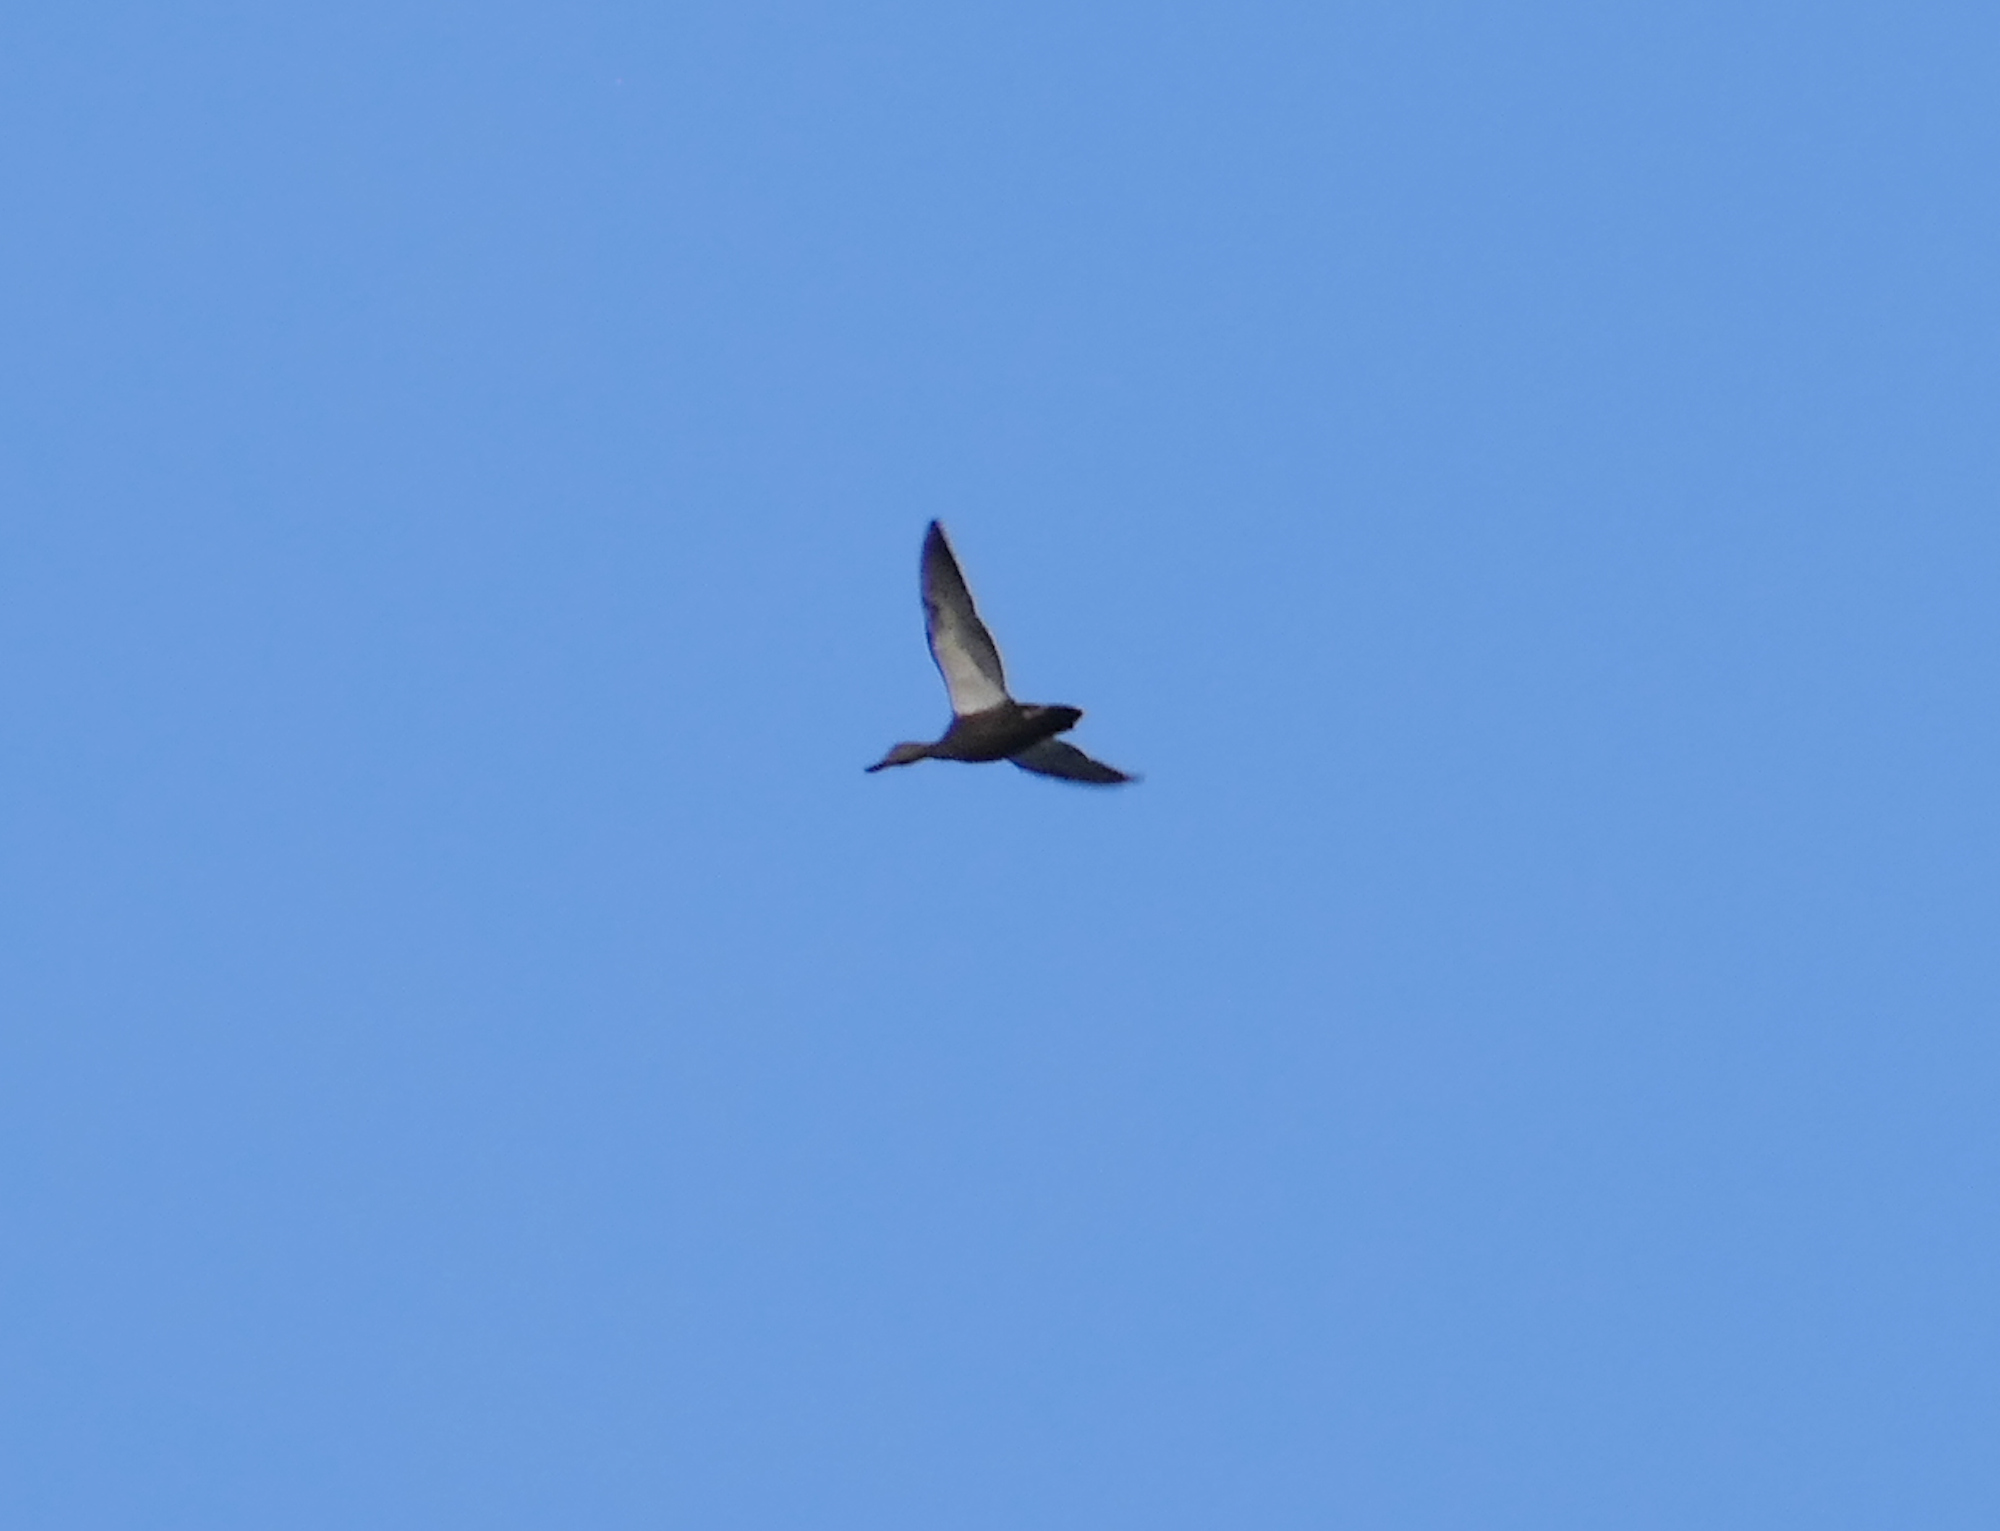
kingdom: Animalia
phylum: Chordata
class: Aves
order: Anseriformes
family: Anatidae
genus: Anas
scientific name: Anas rubripes
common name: American black duck
